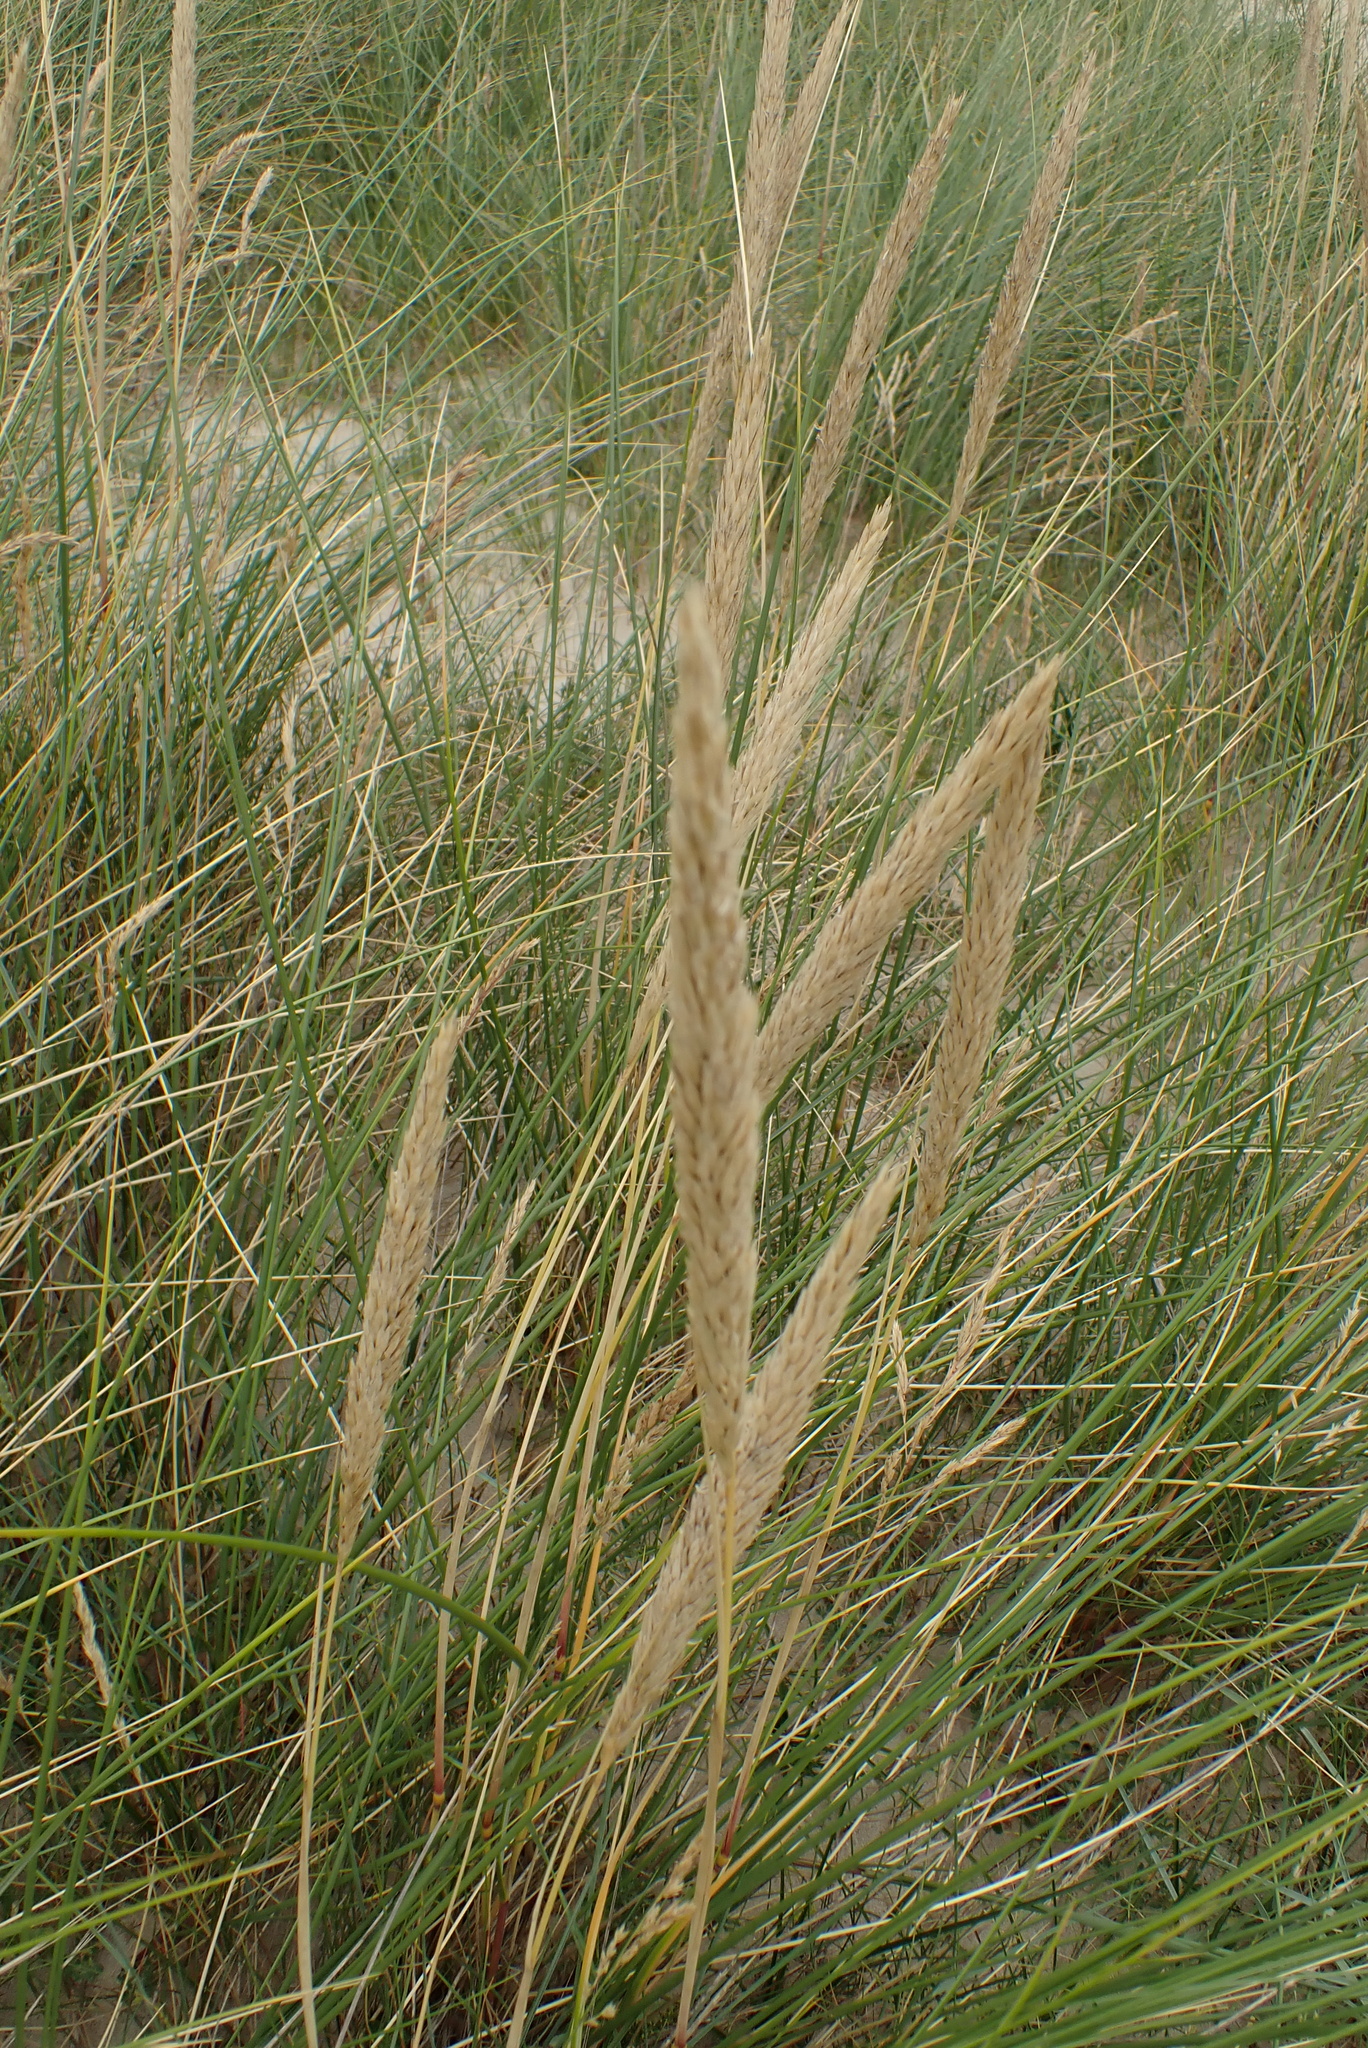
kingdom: Plantae
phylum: Tracheophyta
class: Liliopsida
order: Poales
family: Poaceae
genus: Calamagrostis
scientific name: Calamagrostis arenaria
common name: European beachgrass
